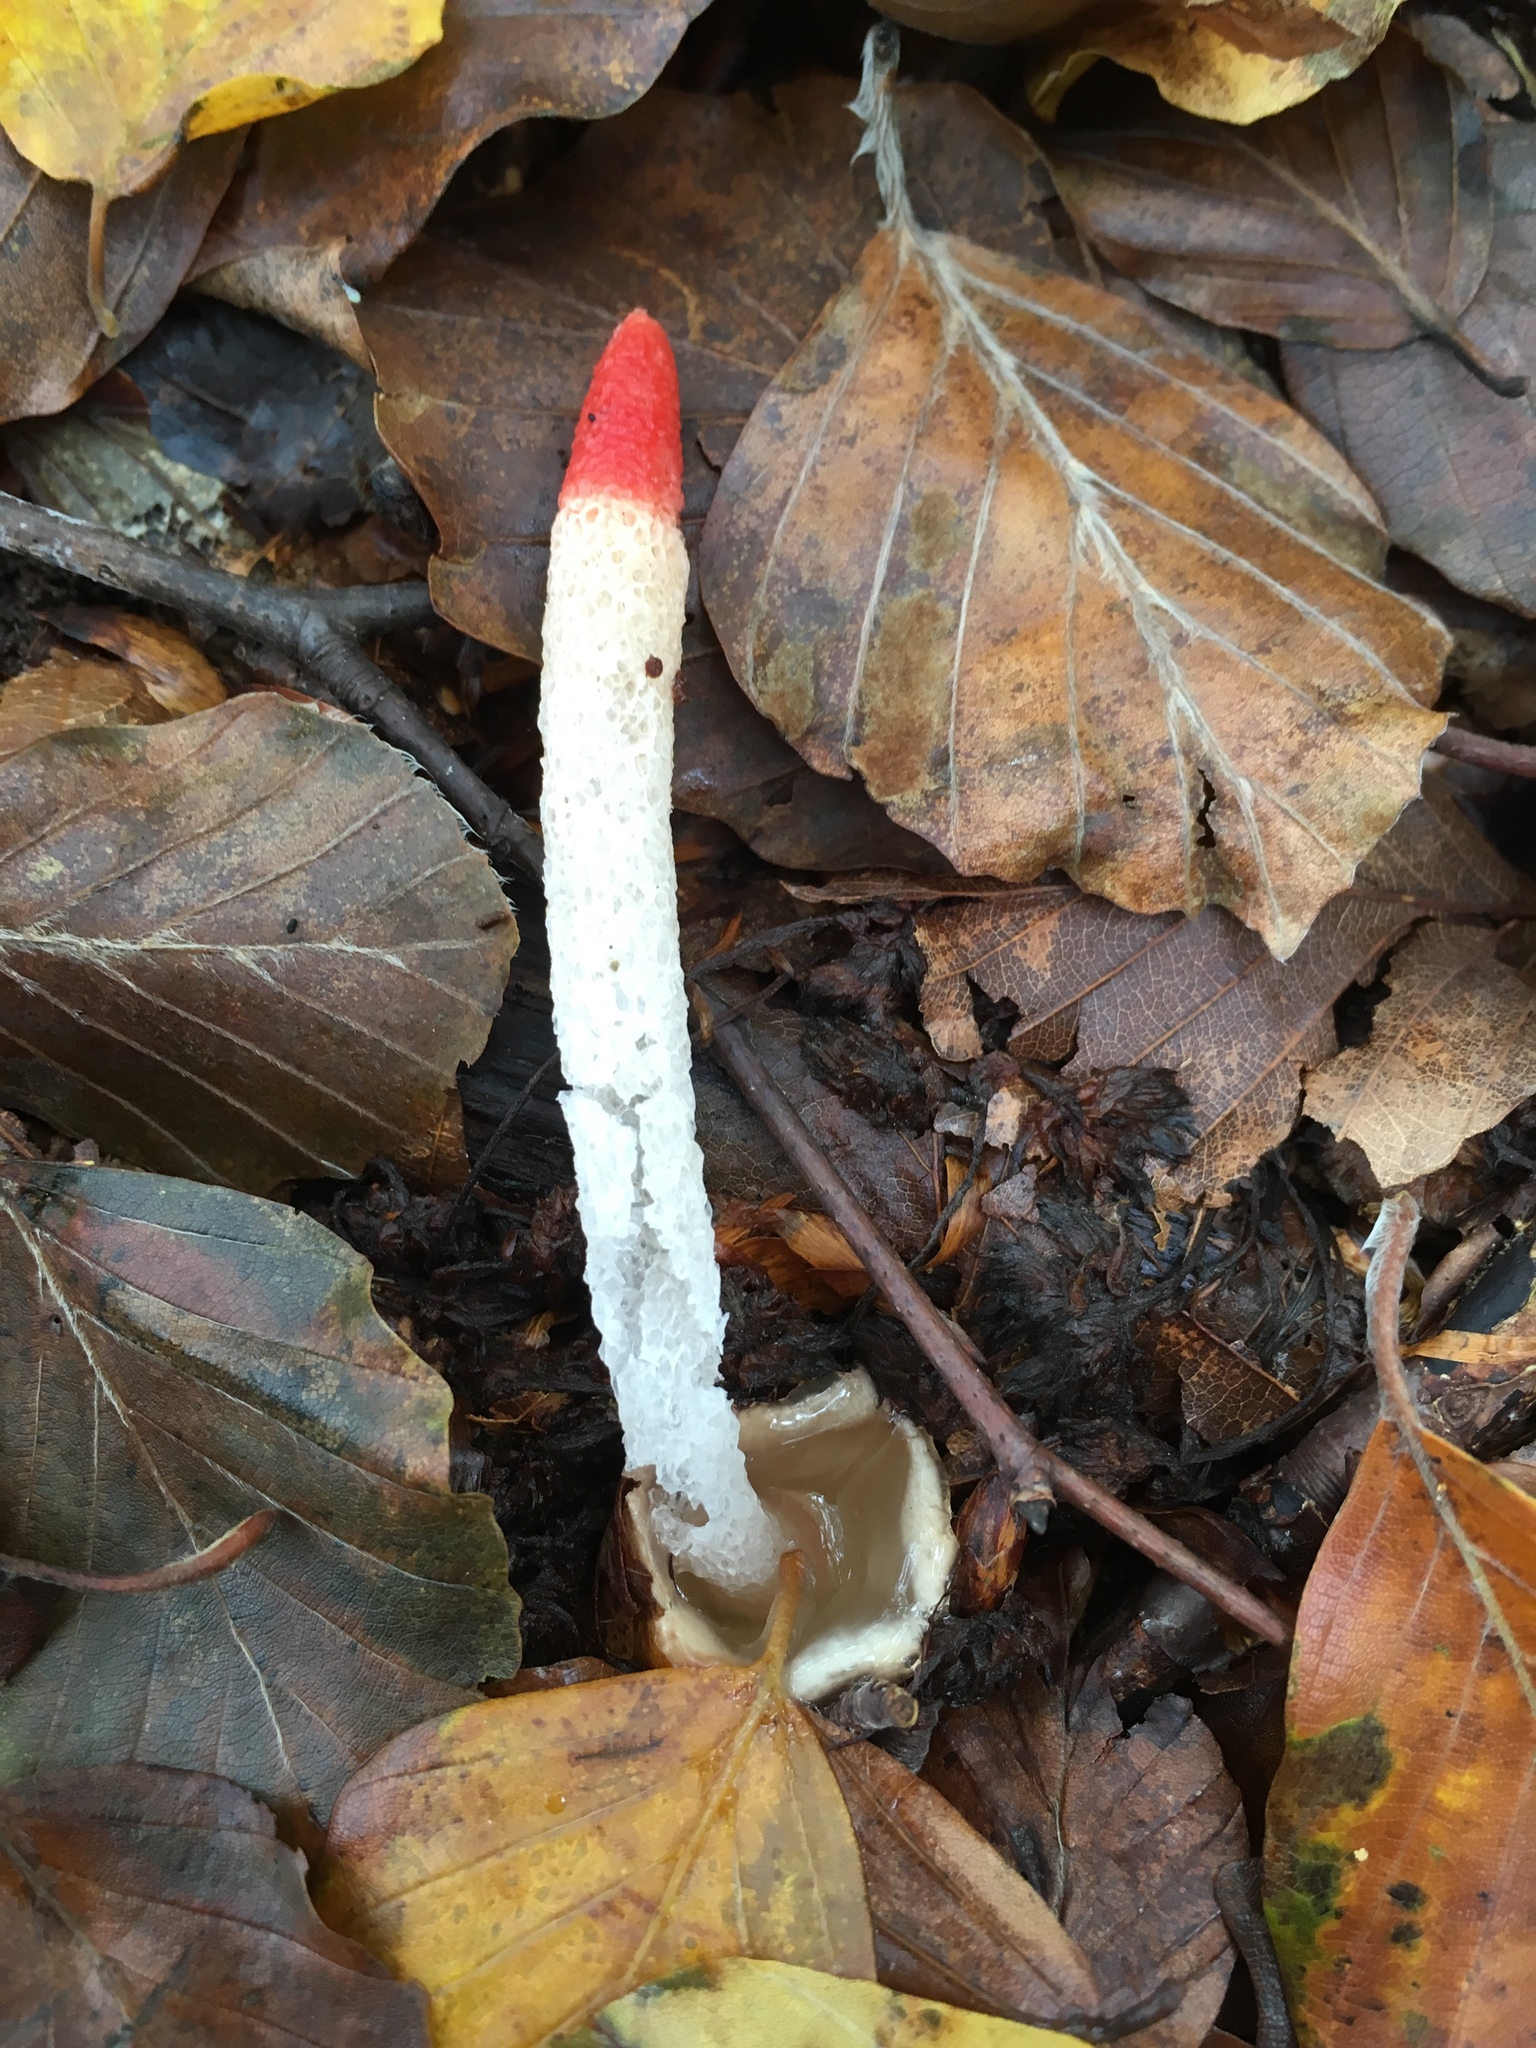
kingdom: Fungi
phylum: Basidiomycota
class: Agaricomycetes
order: Phallales
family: Phallaceae
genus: Mutinus
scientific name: Mutinus caninus
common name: Dog stinkhorn
